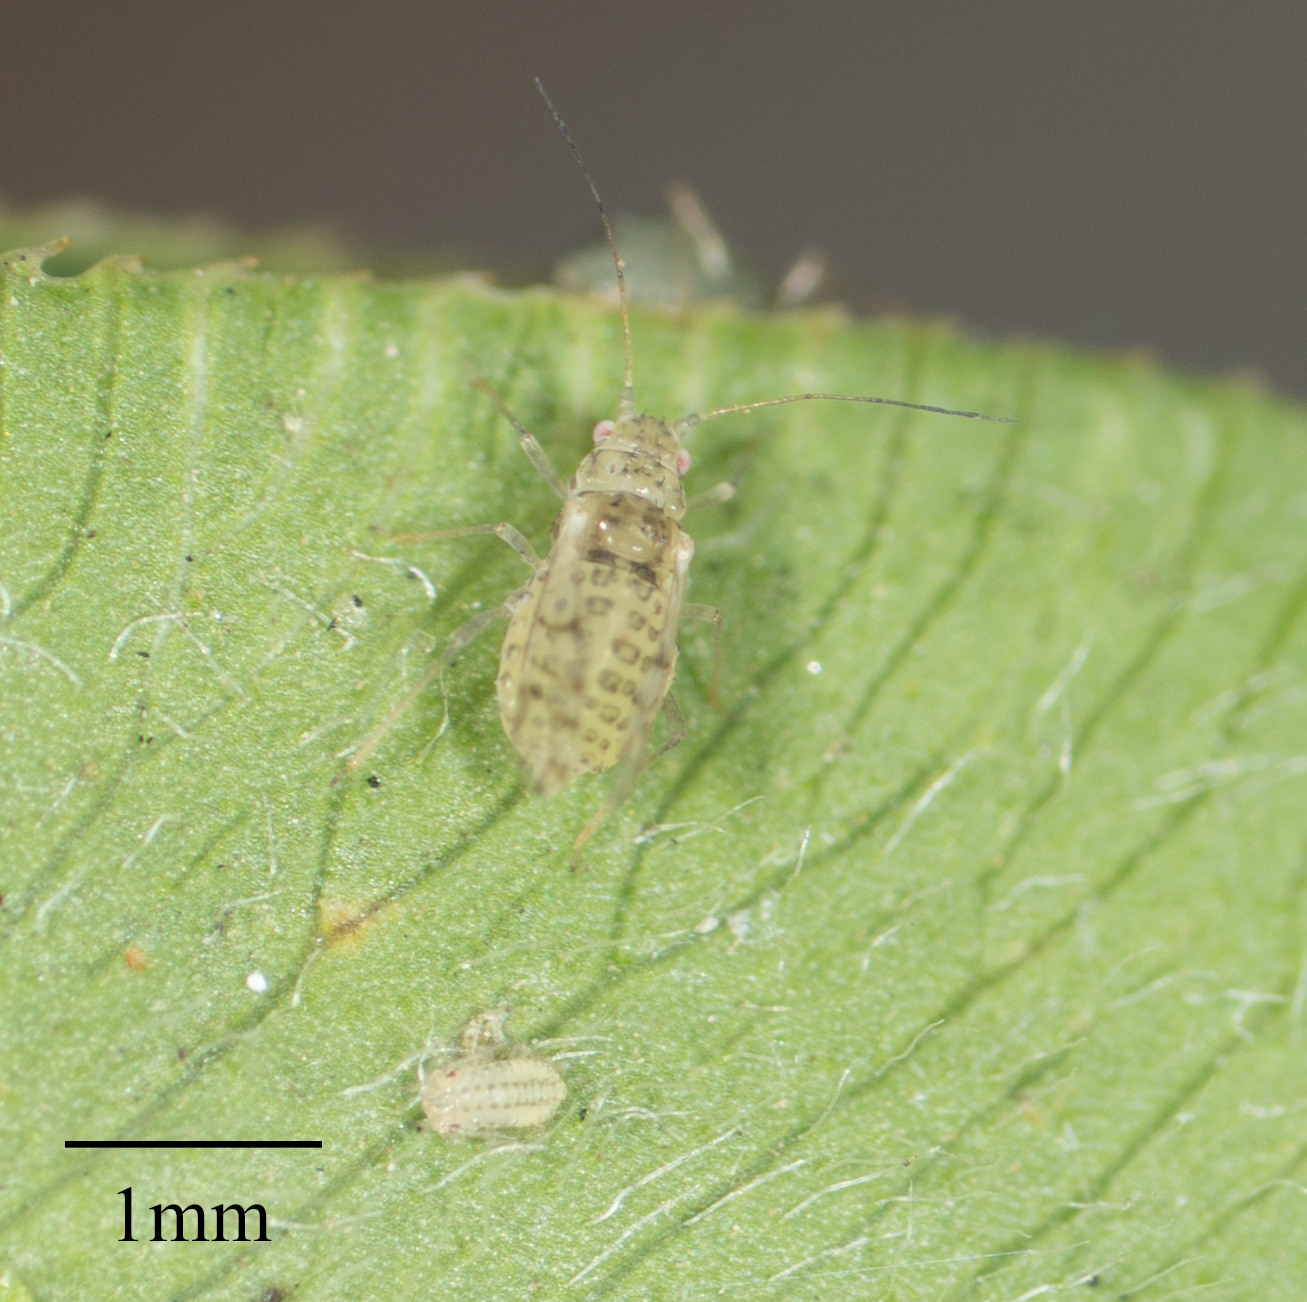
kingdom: Animalia
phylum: Arthropoda
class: Insecta
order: Hemiptera
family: Aphididae
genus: Therioaphis
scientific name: Therioaphis trifolii
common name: Spotted alfalfa aphid
